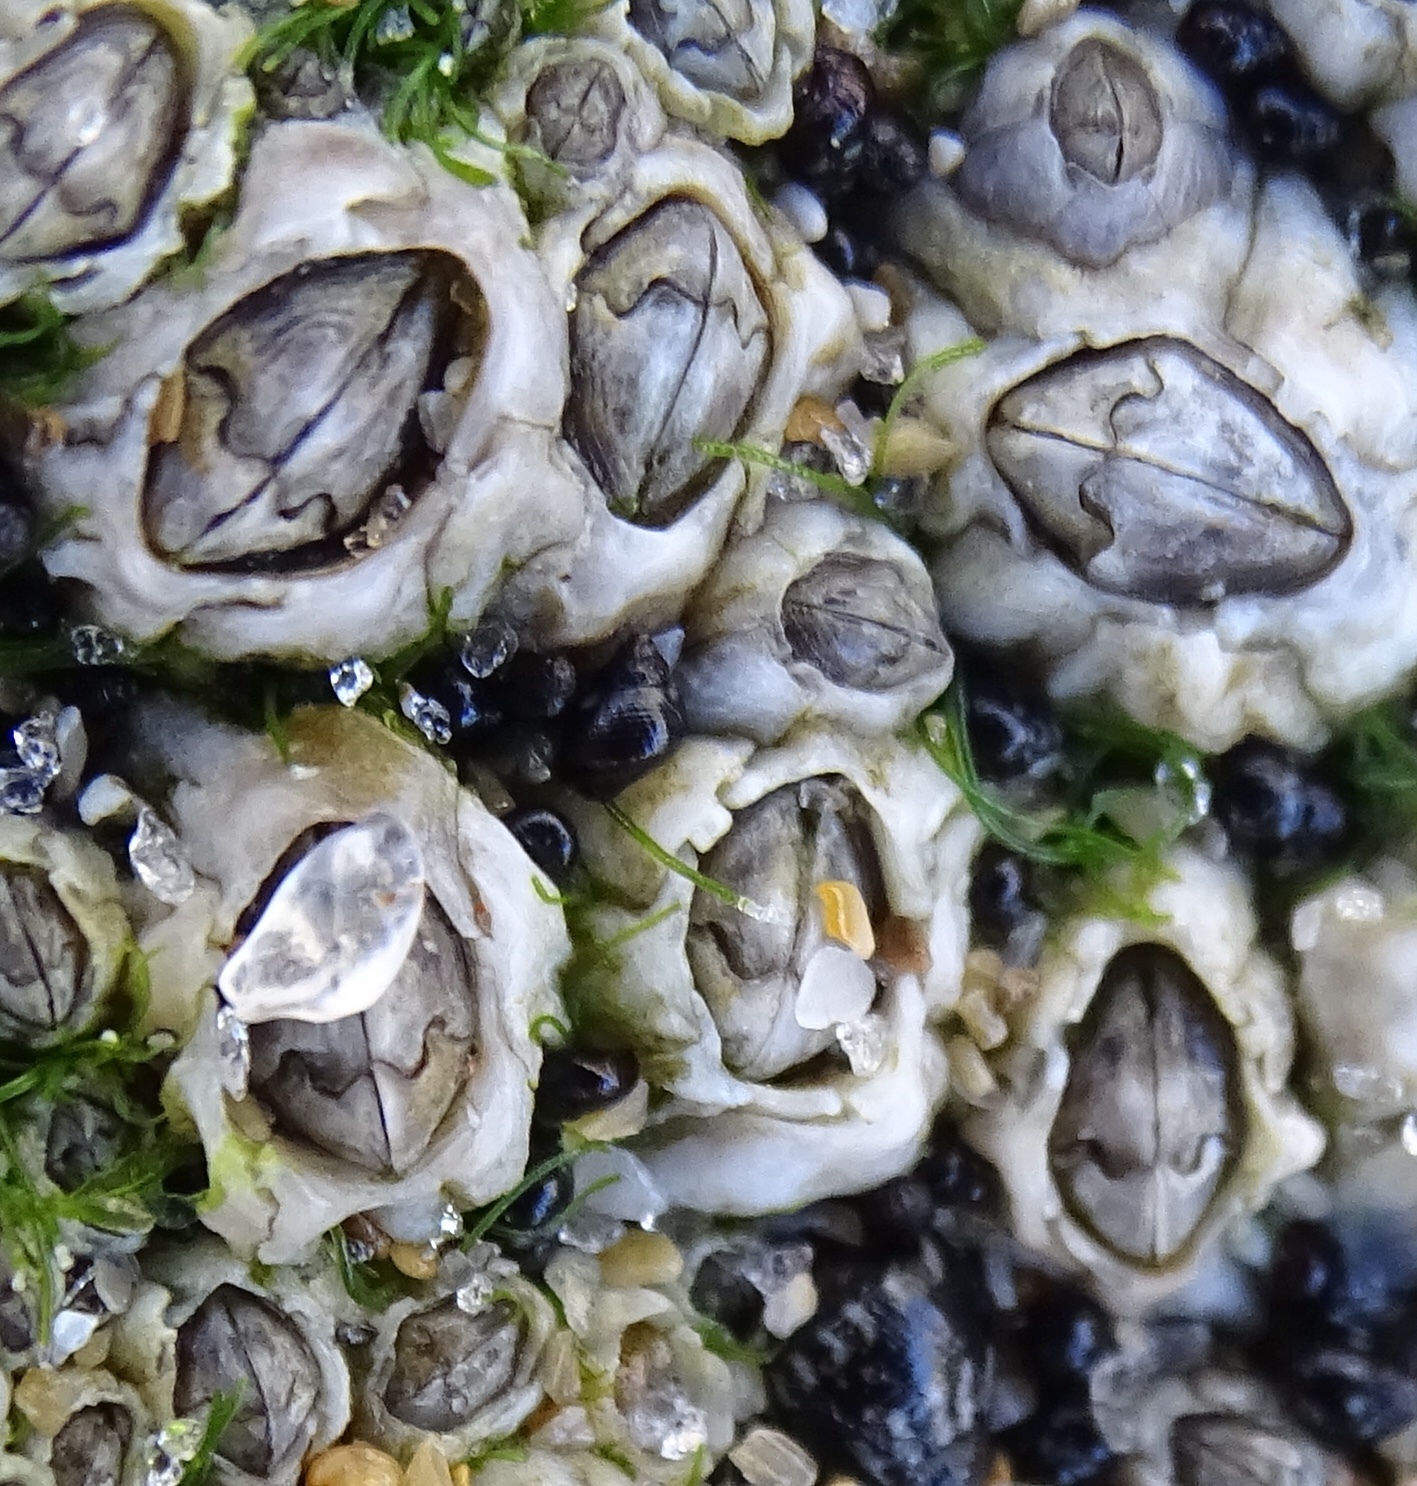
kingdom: Animalia
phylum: Arthropoda
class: Maxillopoda
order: Sessilia
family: Chthamalidae
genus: Chthamalus
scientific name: Chthamalus fragilis
